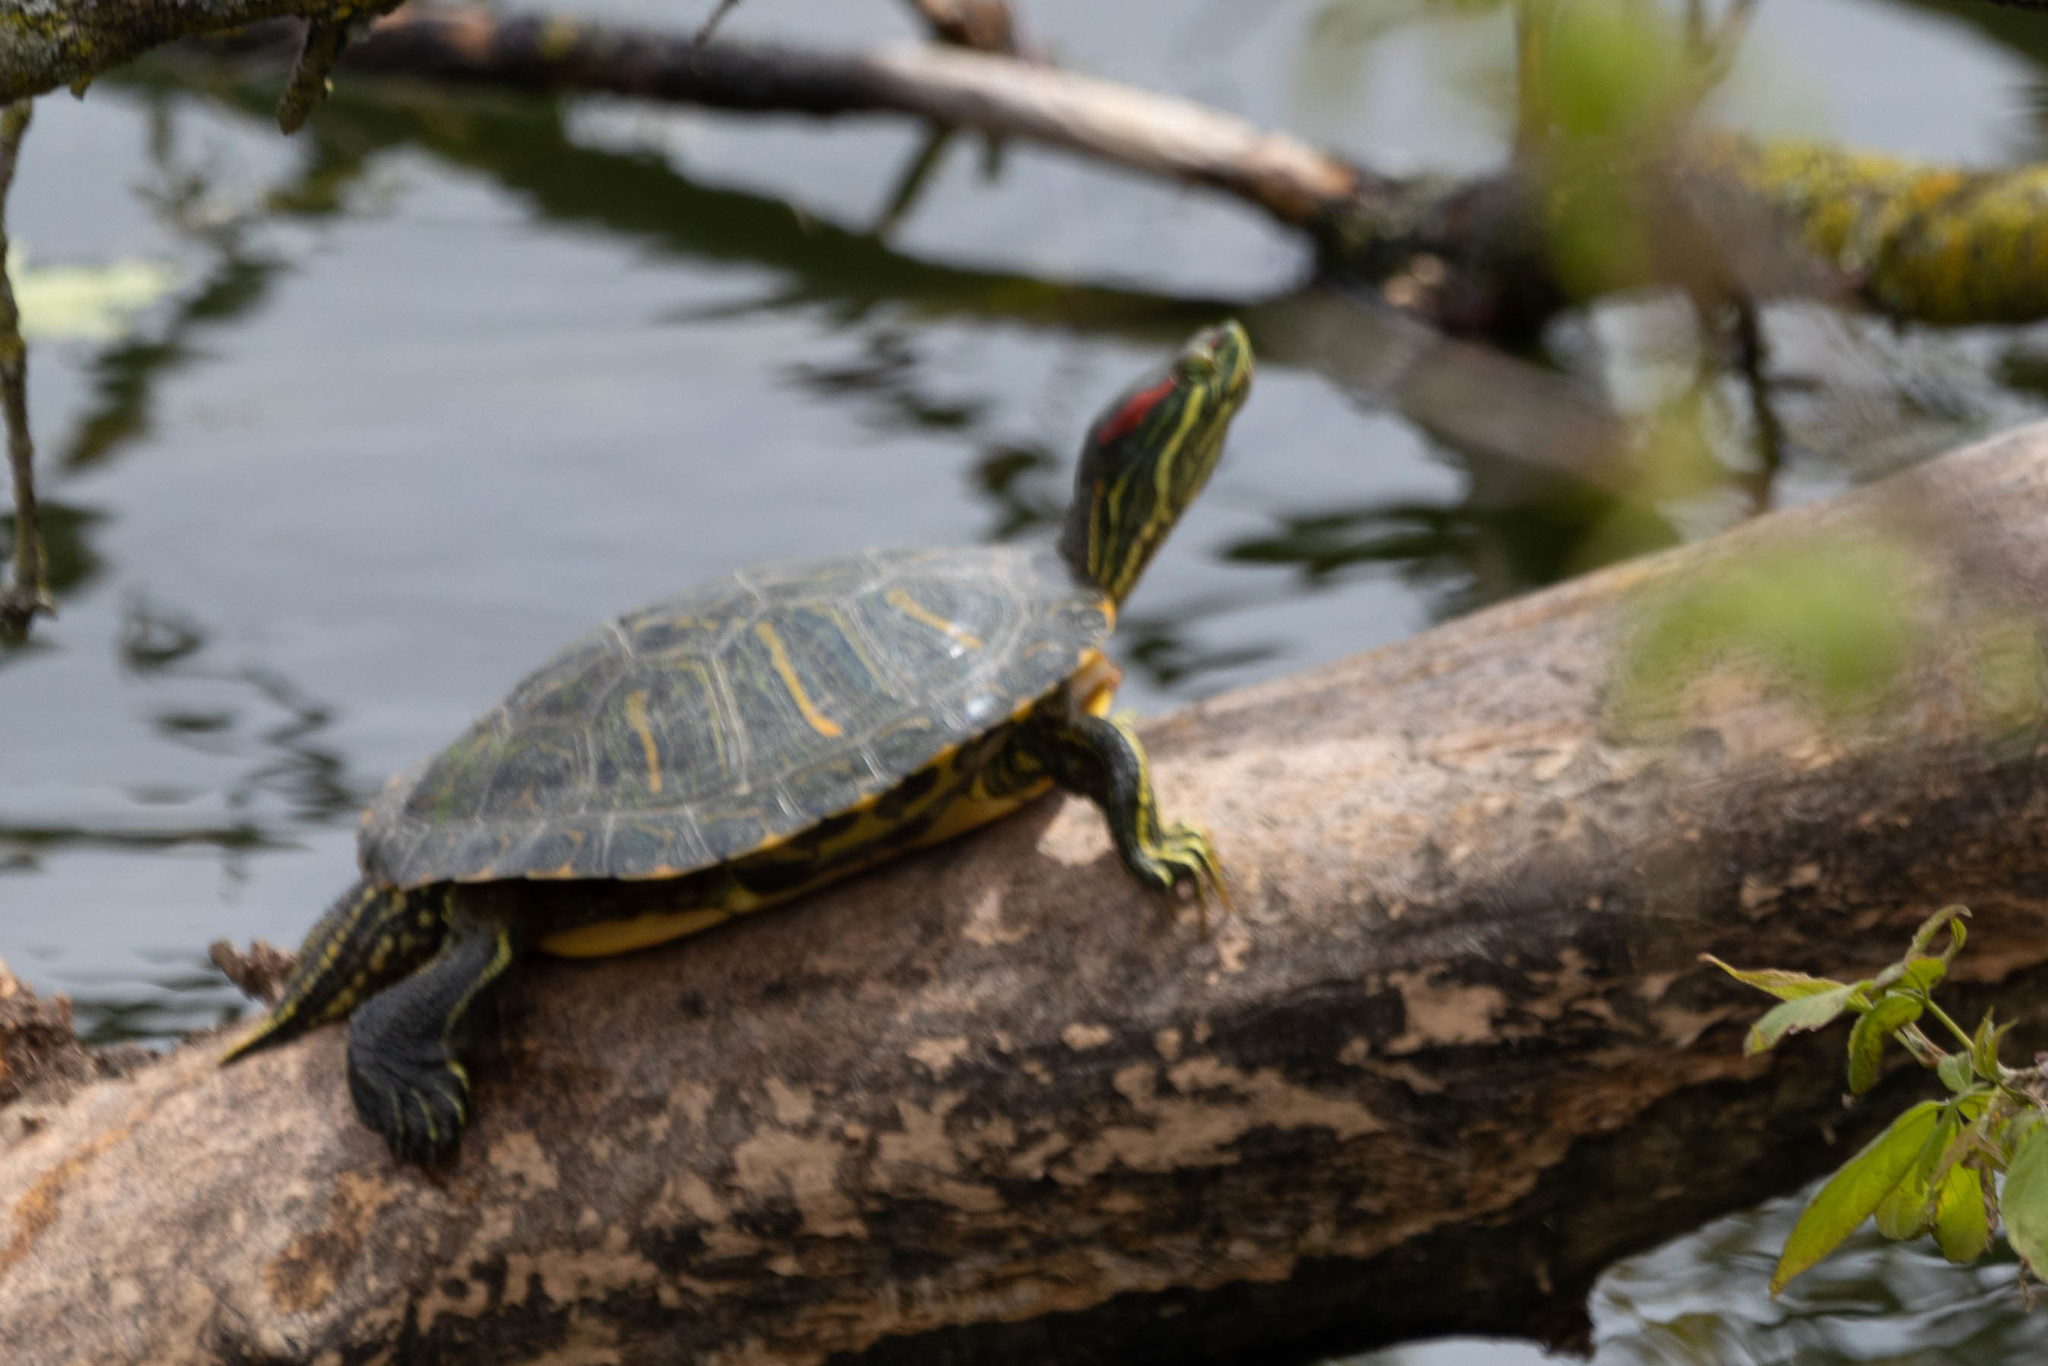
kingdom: Animalia
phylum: Chordata
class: Testudines
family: Emydidae
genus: Trachemys
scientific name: Trachemys scripta
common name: Slider
